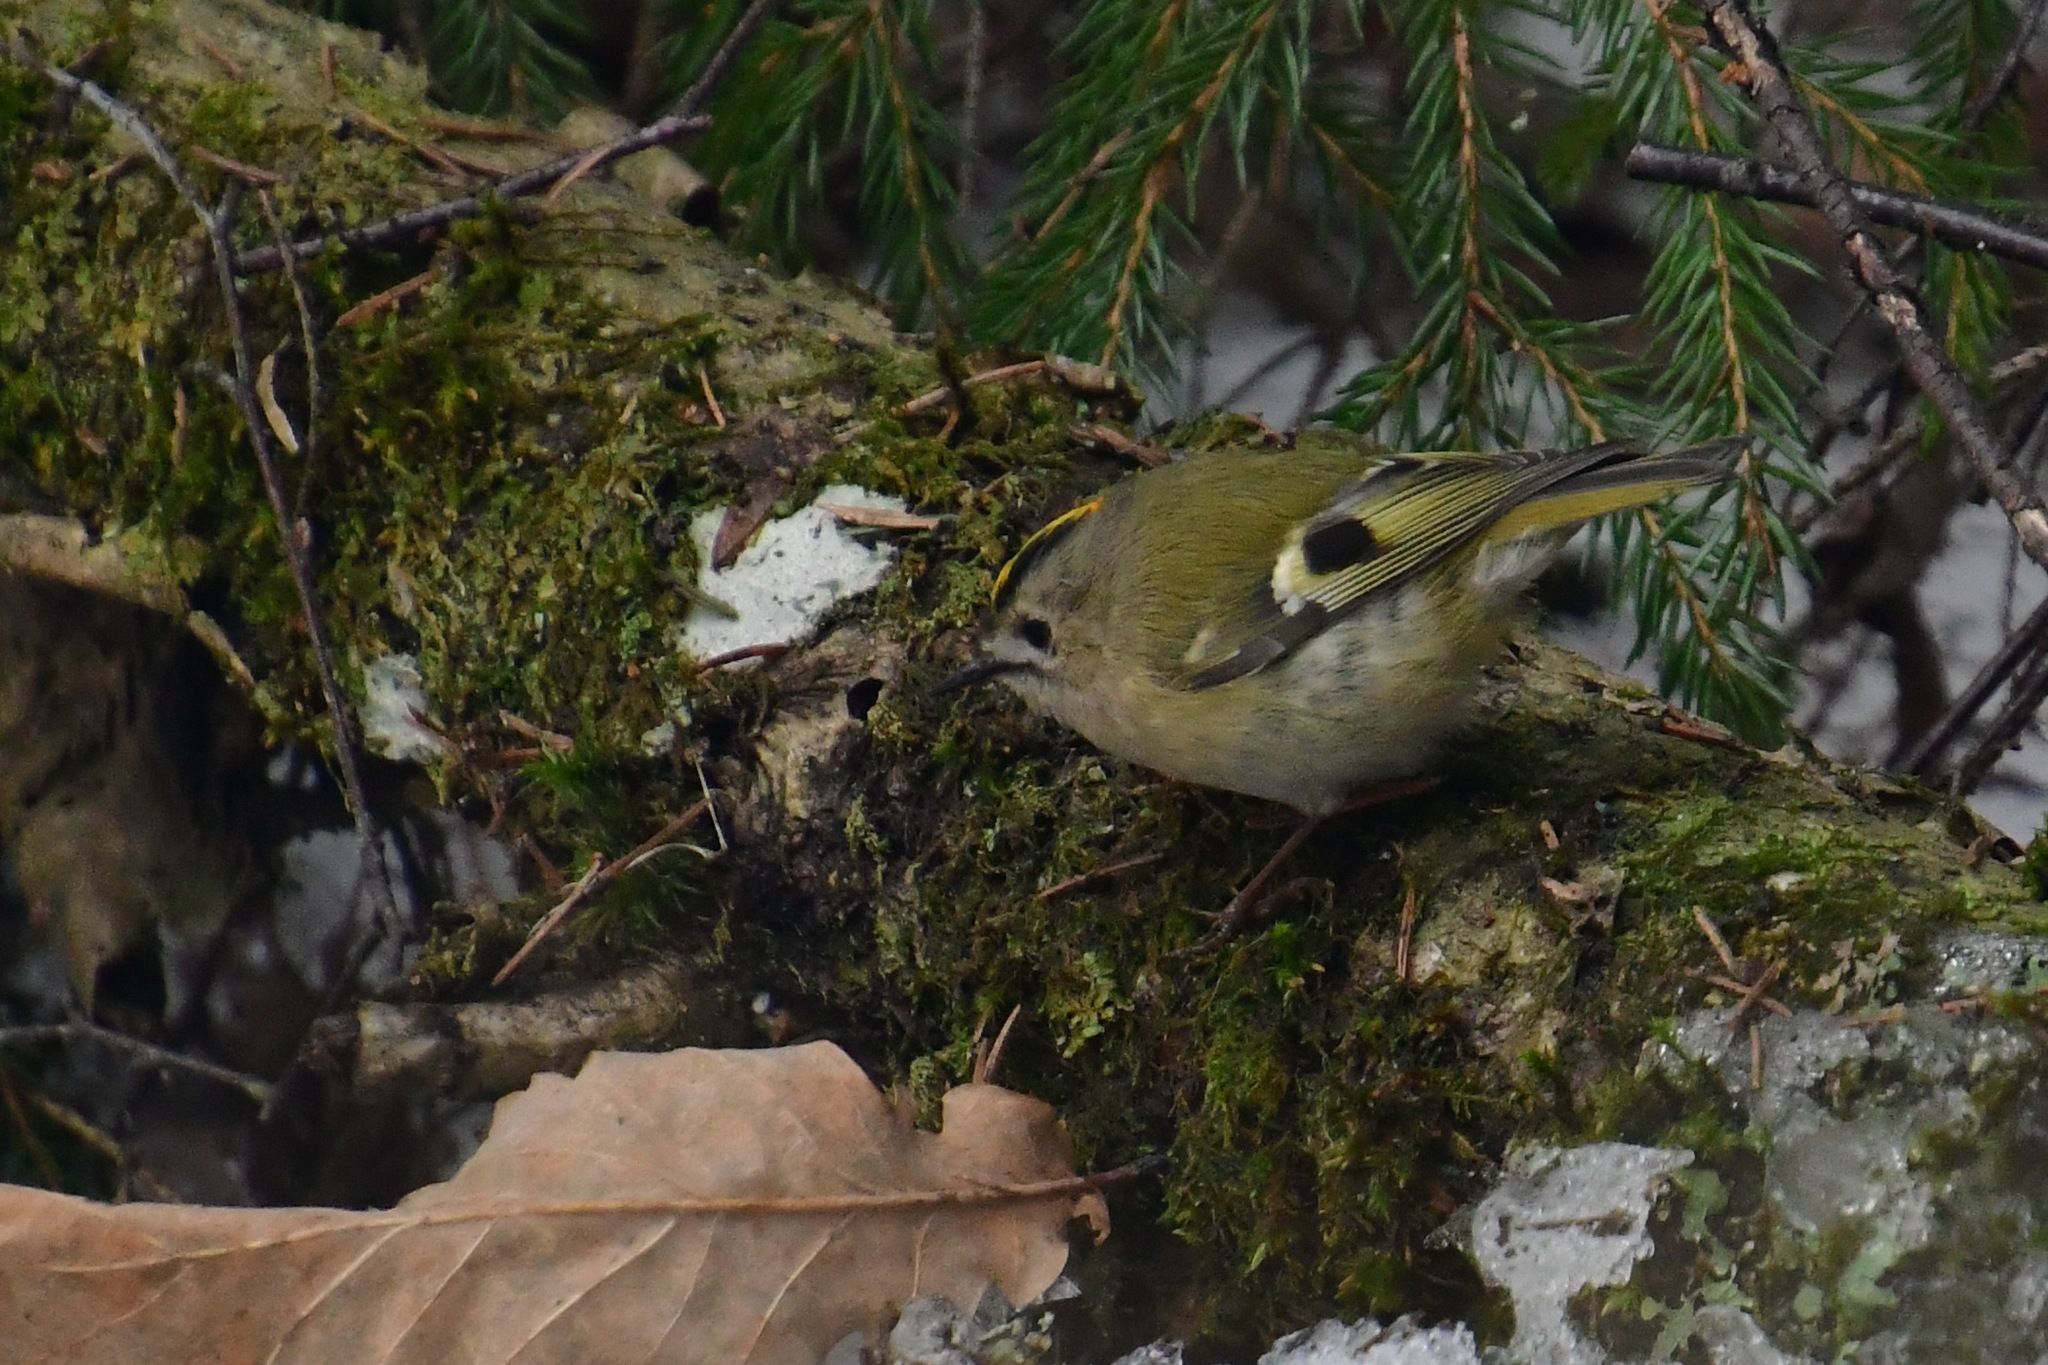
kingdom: Animalia
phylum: Chordata
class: Aves
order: Passeriformes
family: Regulidae
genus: Regulus
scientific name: Regulus regulus
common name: Goldcrest
